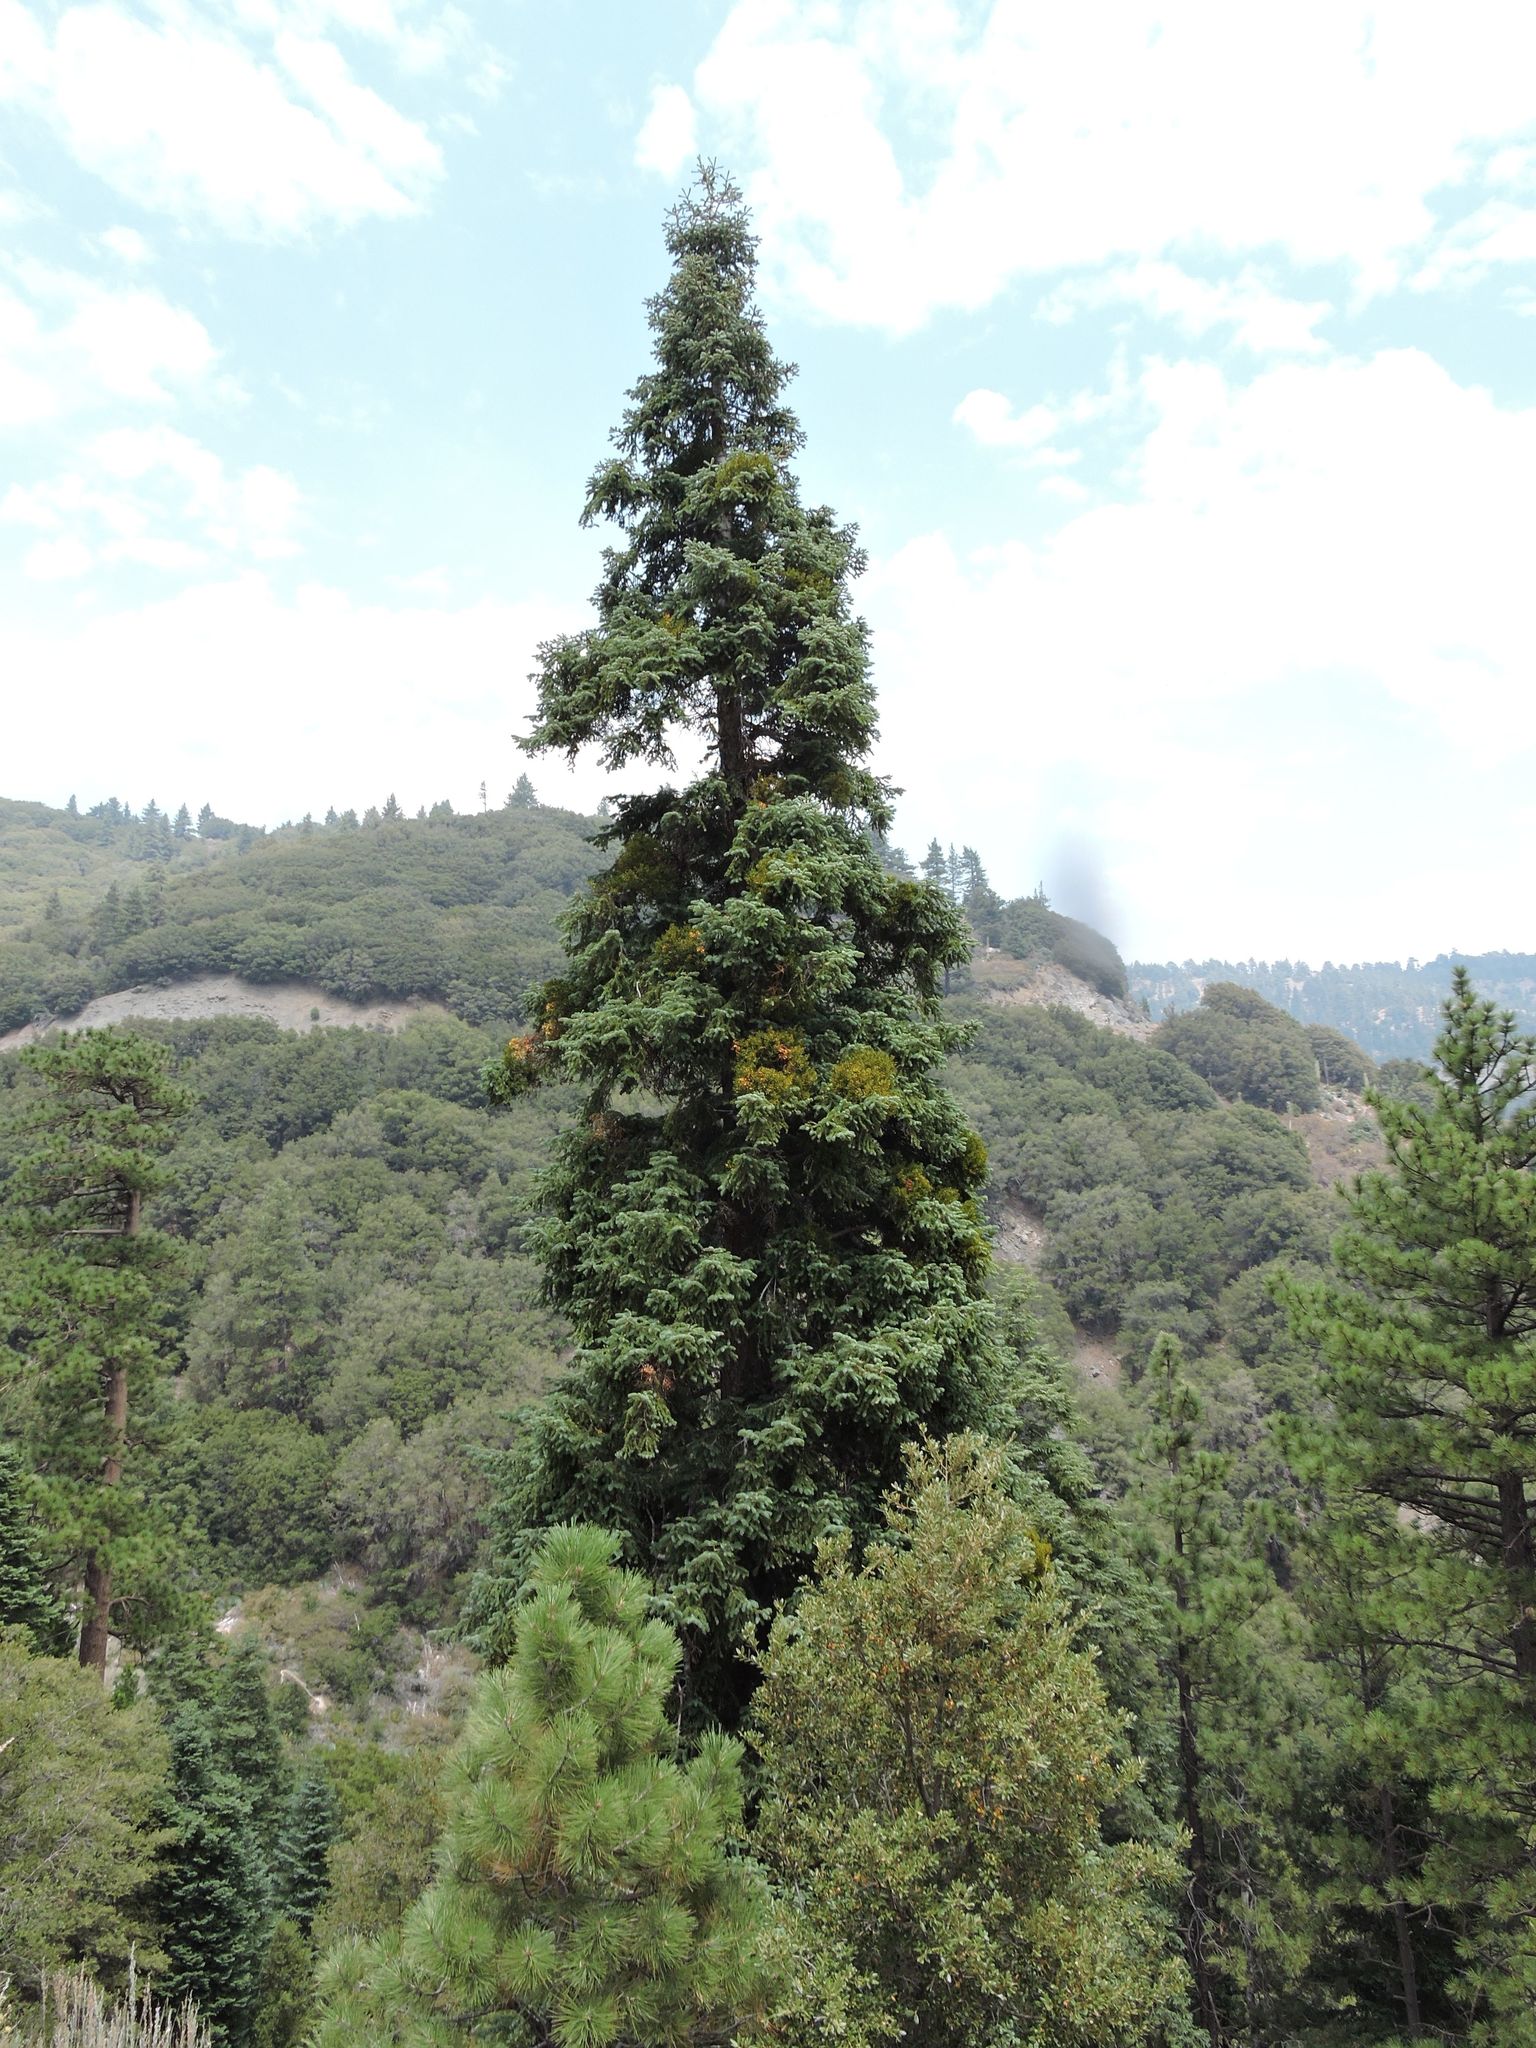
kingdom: Plantae
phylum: Tracheophyta
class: Pinopsida
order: Pinales
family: Pinaceae
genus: Abies
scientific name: Abies concolor
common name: Colorado fir
